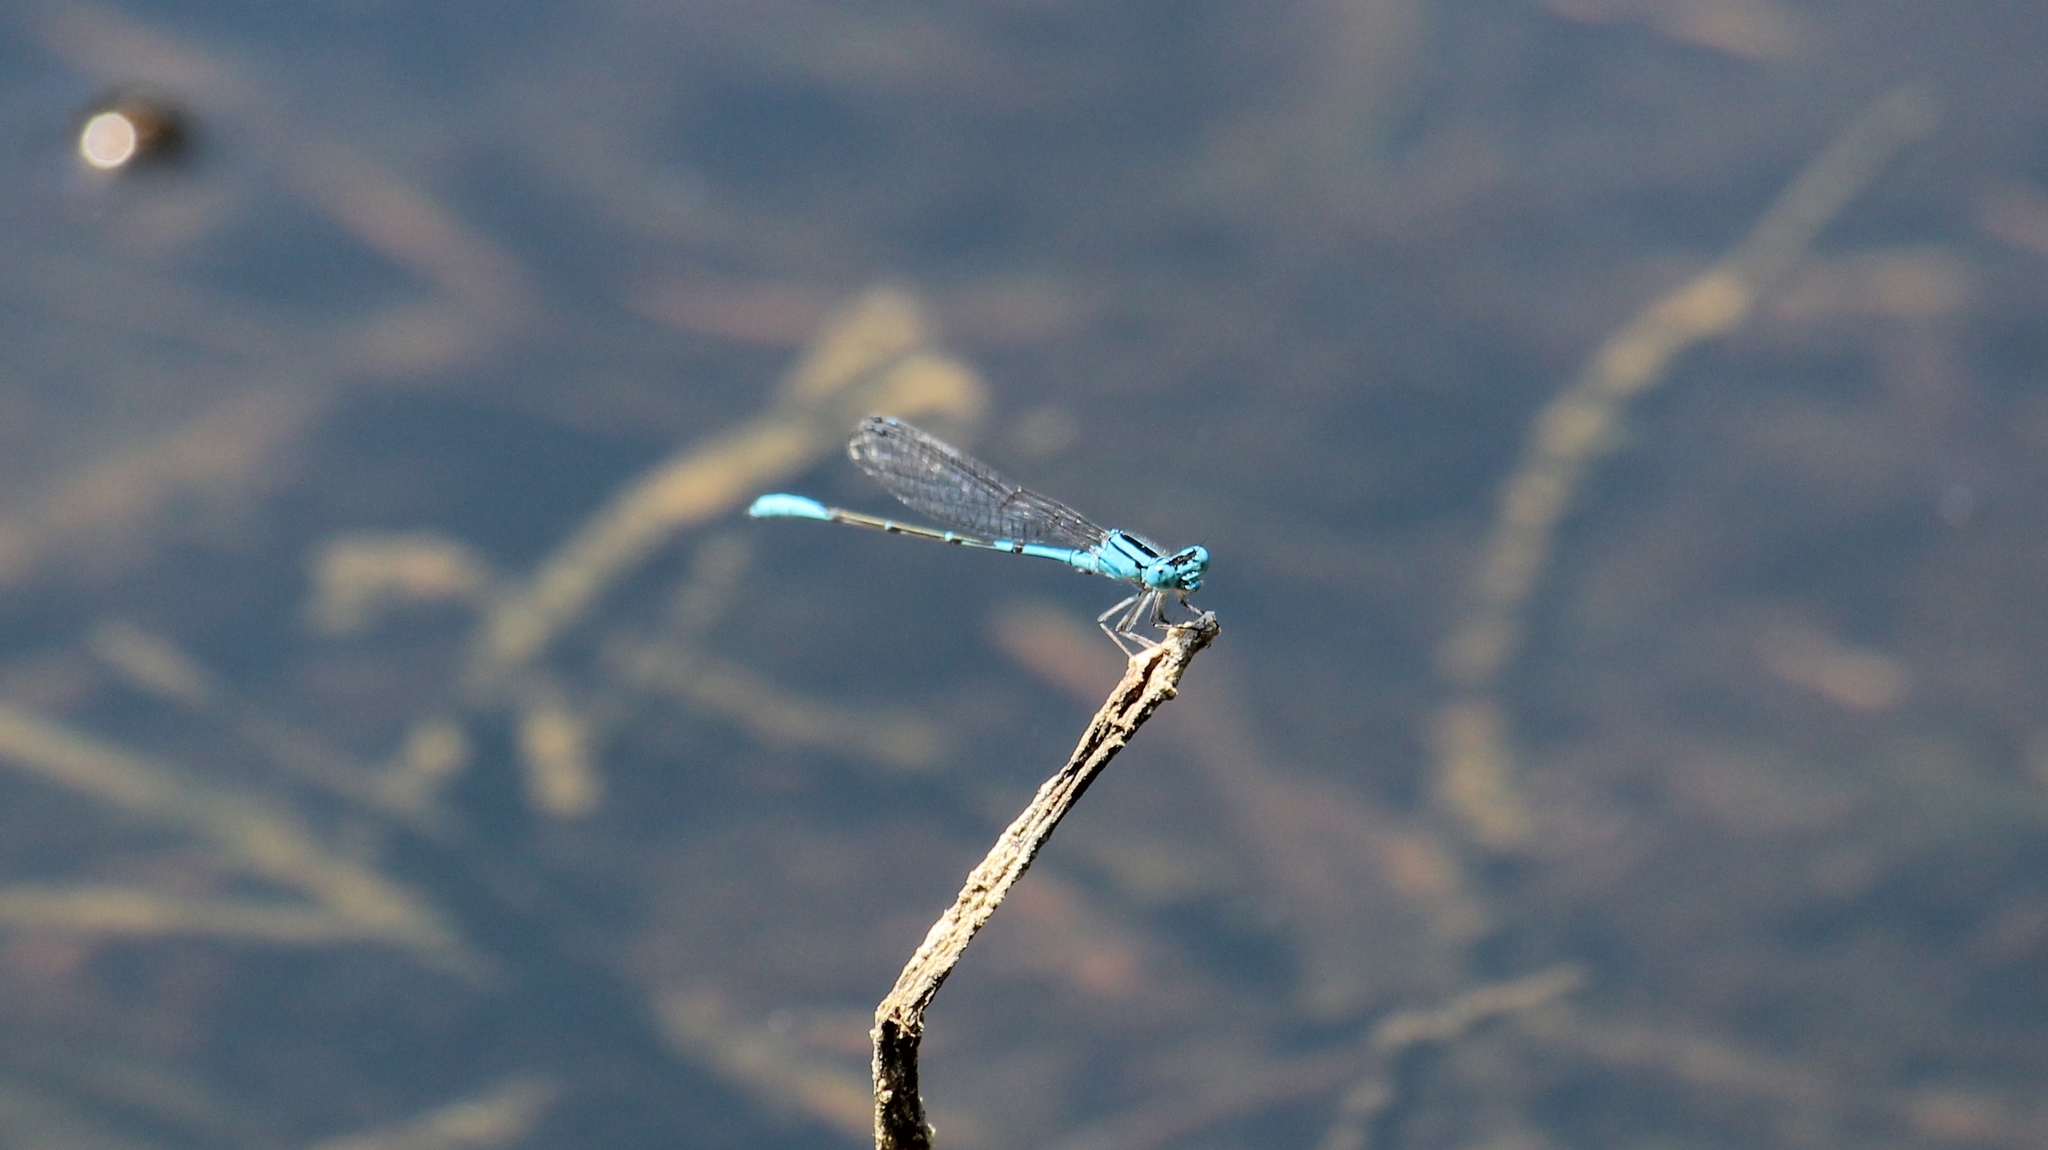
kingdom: Animalia
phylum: Arthropoda
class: Insecta
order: Odonata
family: Coenagrionidae
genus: Enacantha
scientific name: Enacantha caribbea
